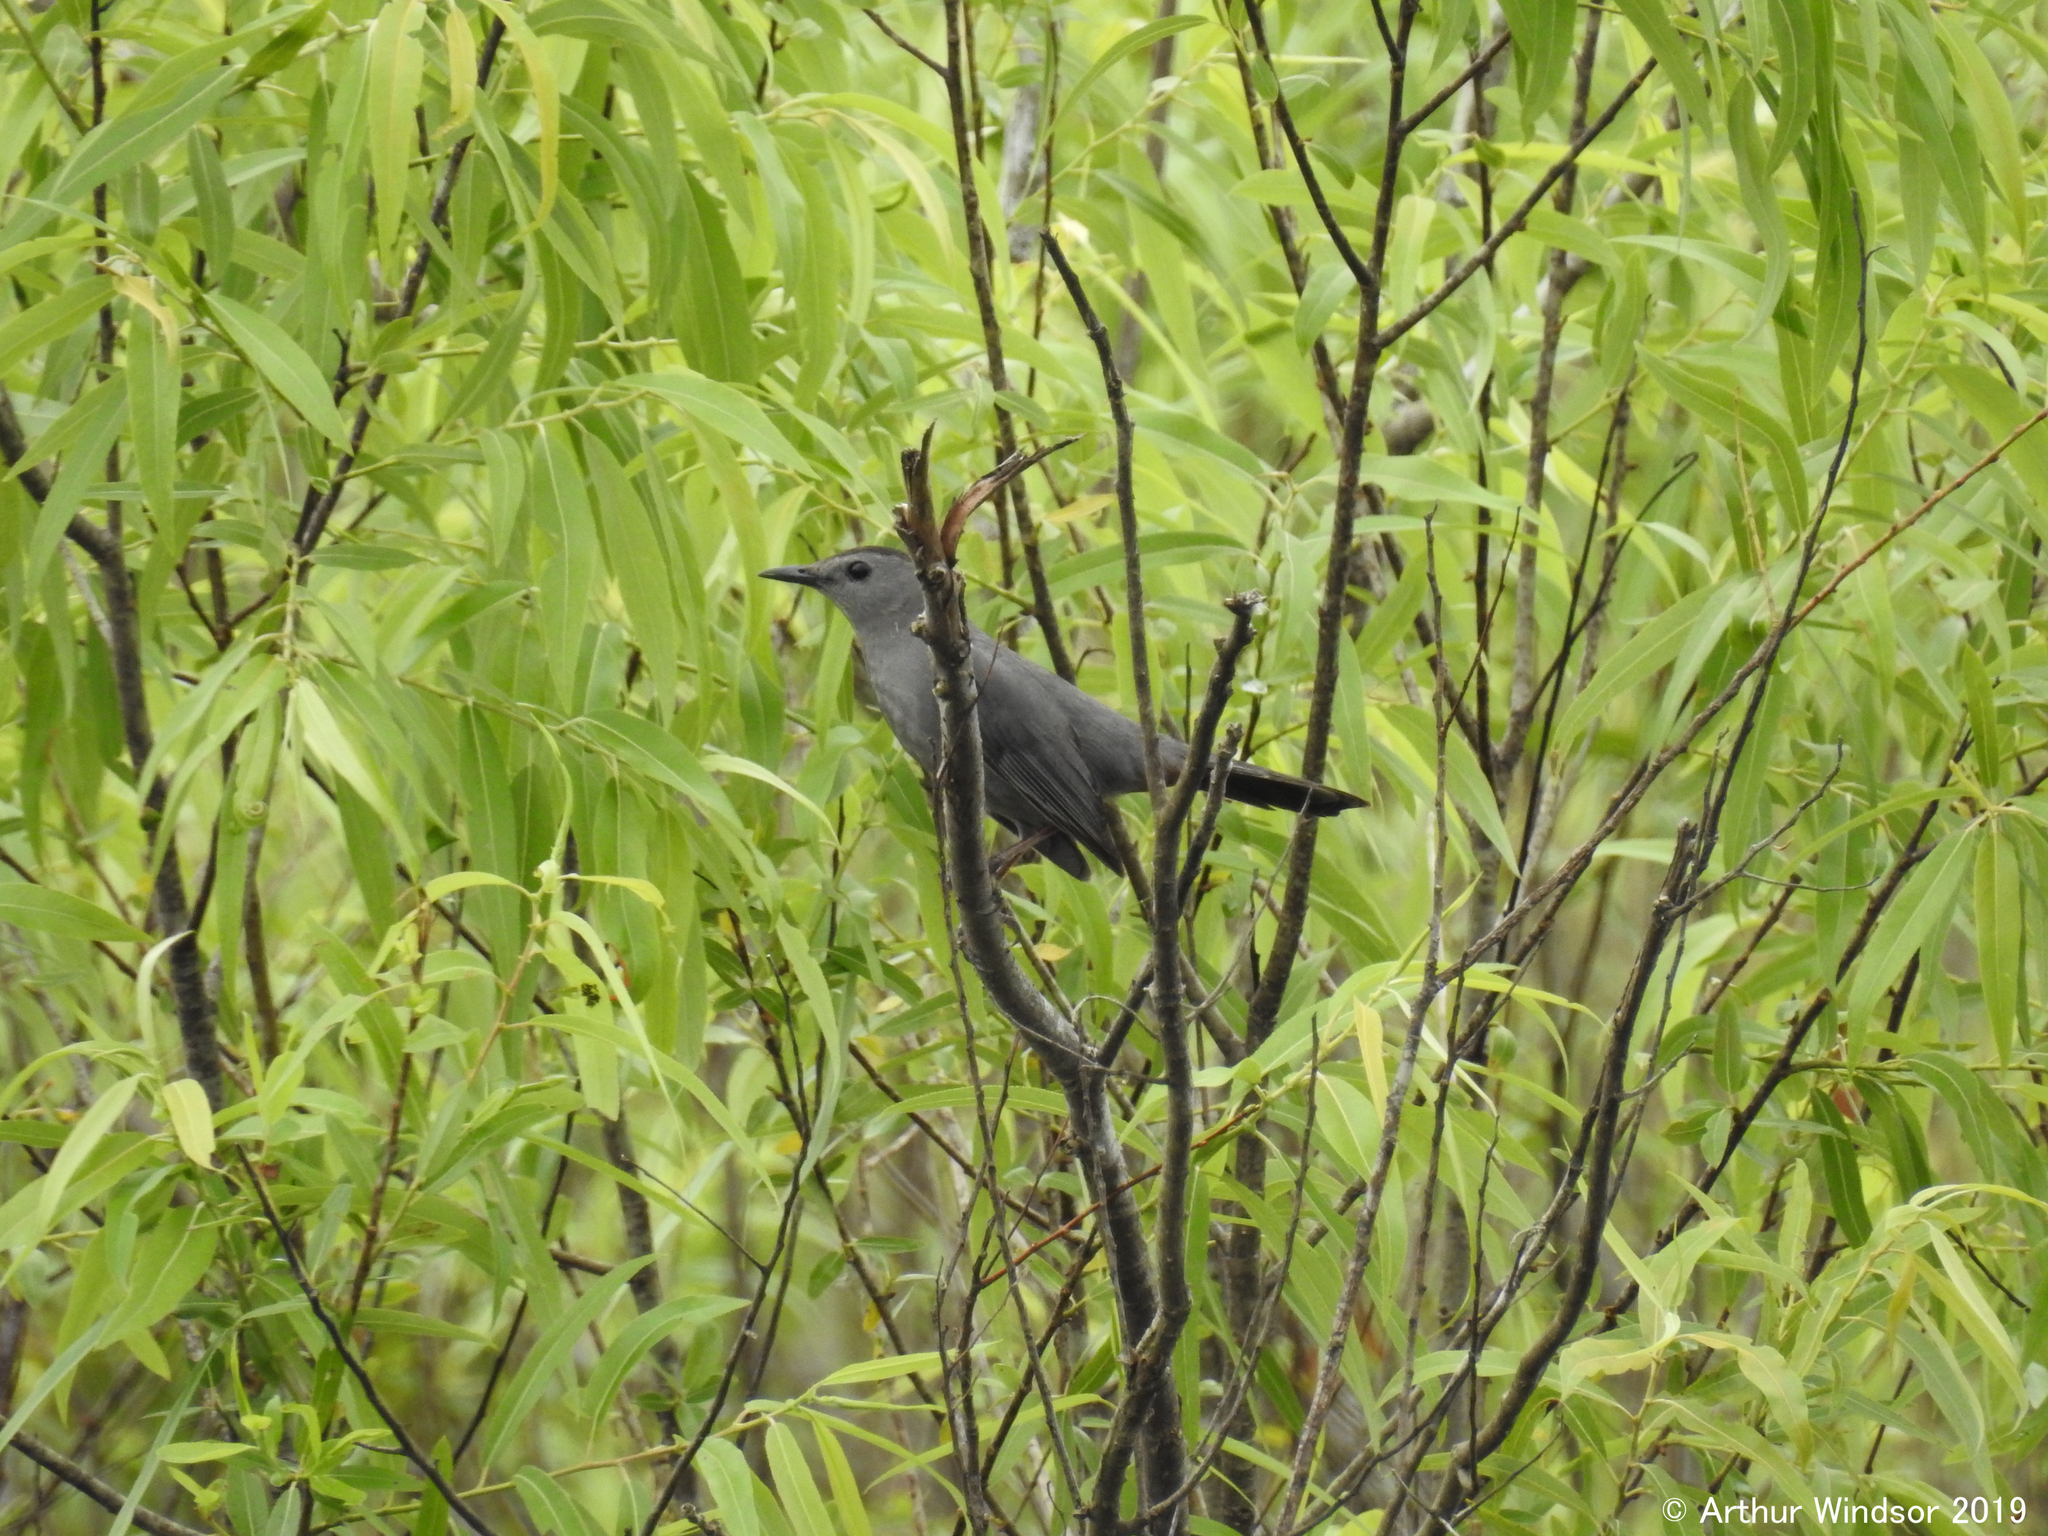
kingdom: Animalia
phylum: Chordata
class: Aves
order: Passeriformes
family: Mimidae
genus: Dumetella
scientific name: Dumetella carolinensis
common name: Gray catbird
